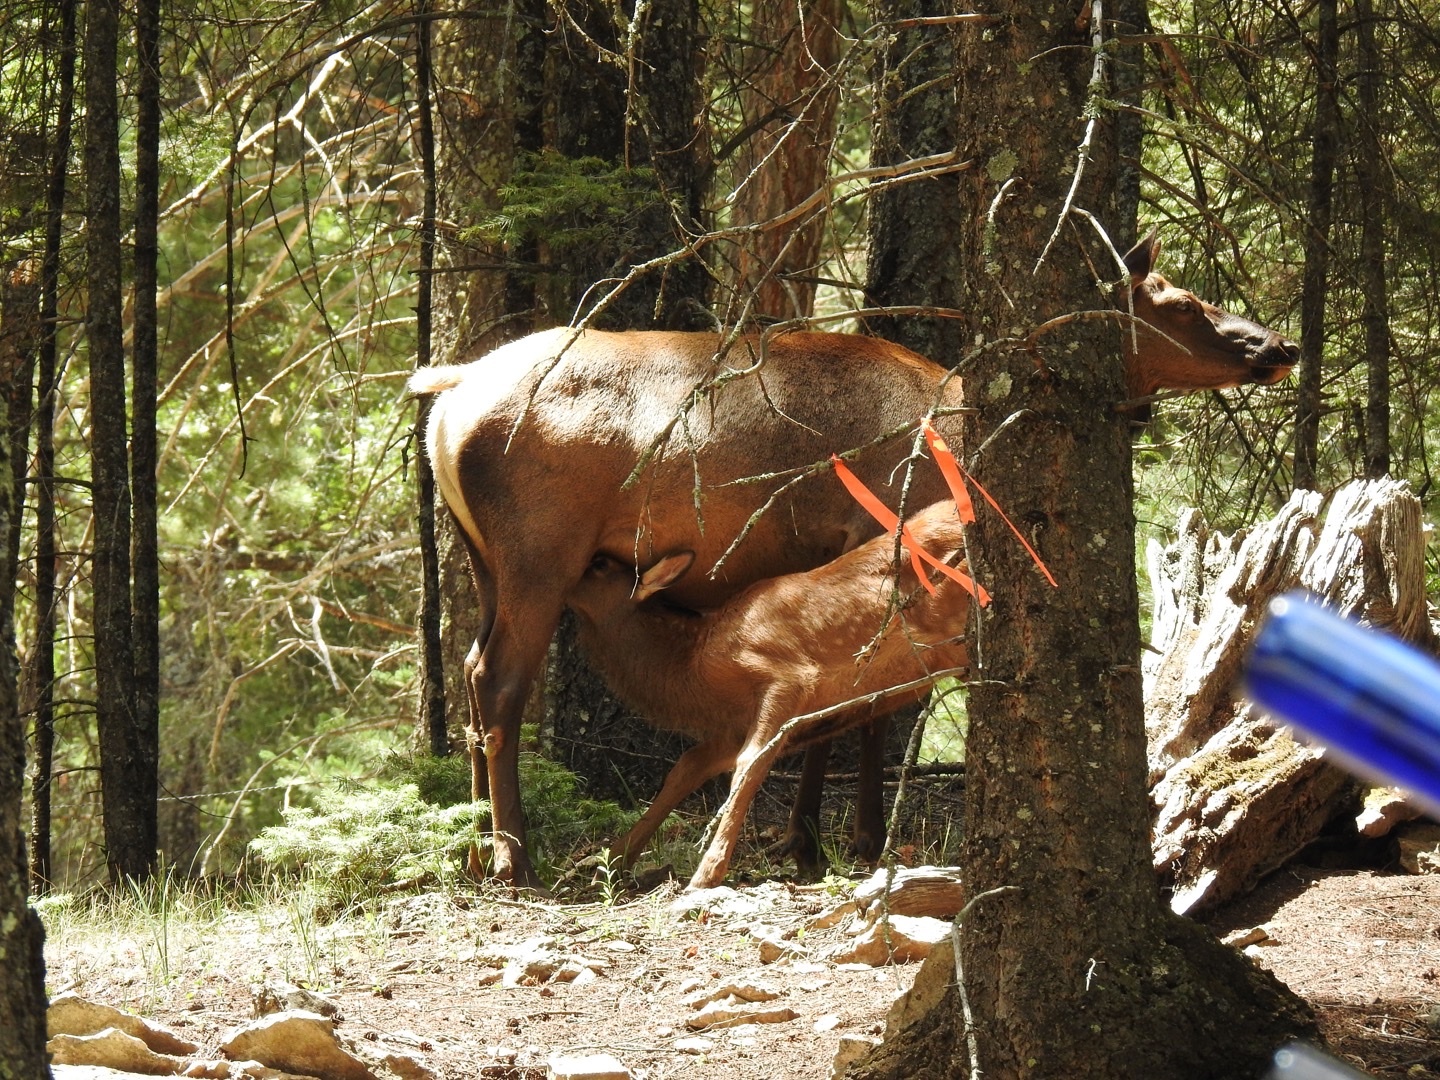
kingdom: Animalia
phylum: Chordata
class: Mammalia
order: Artiodactyla
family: Cervidae
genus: Cervus
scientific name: Cervus elaphus
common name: Red deer
